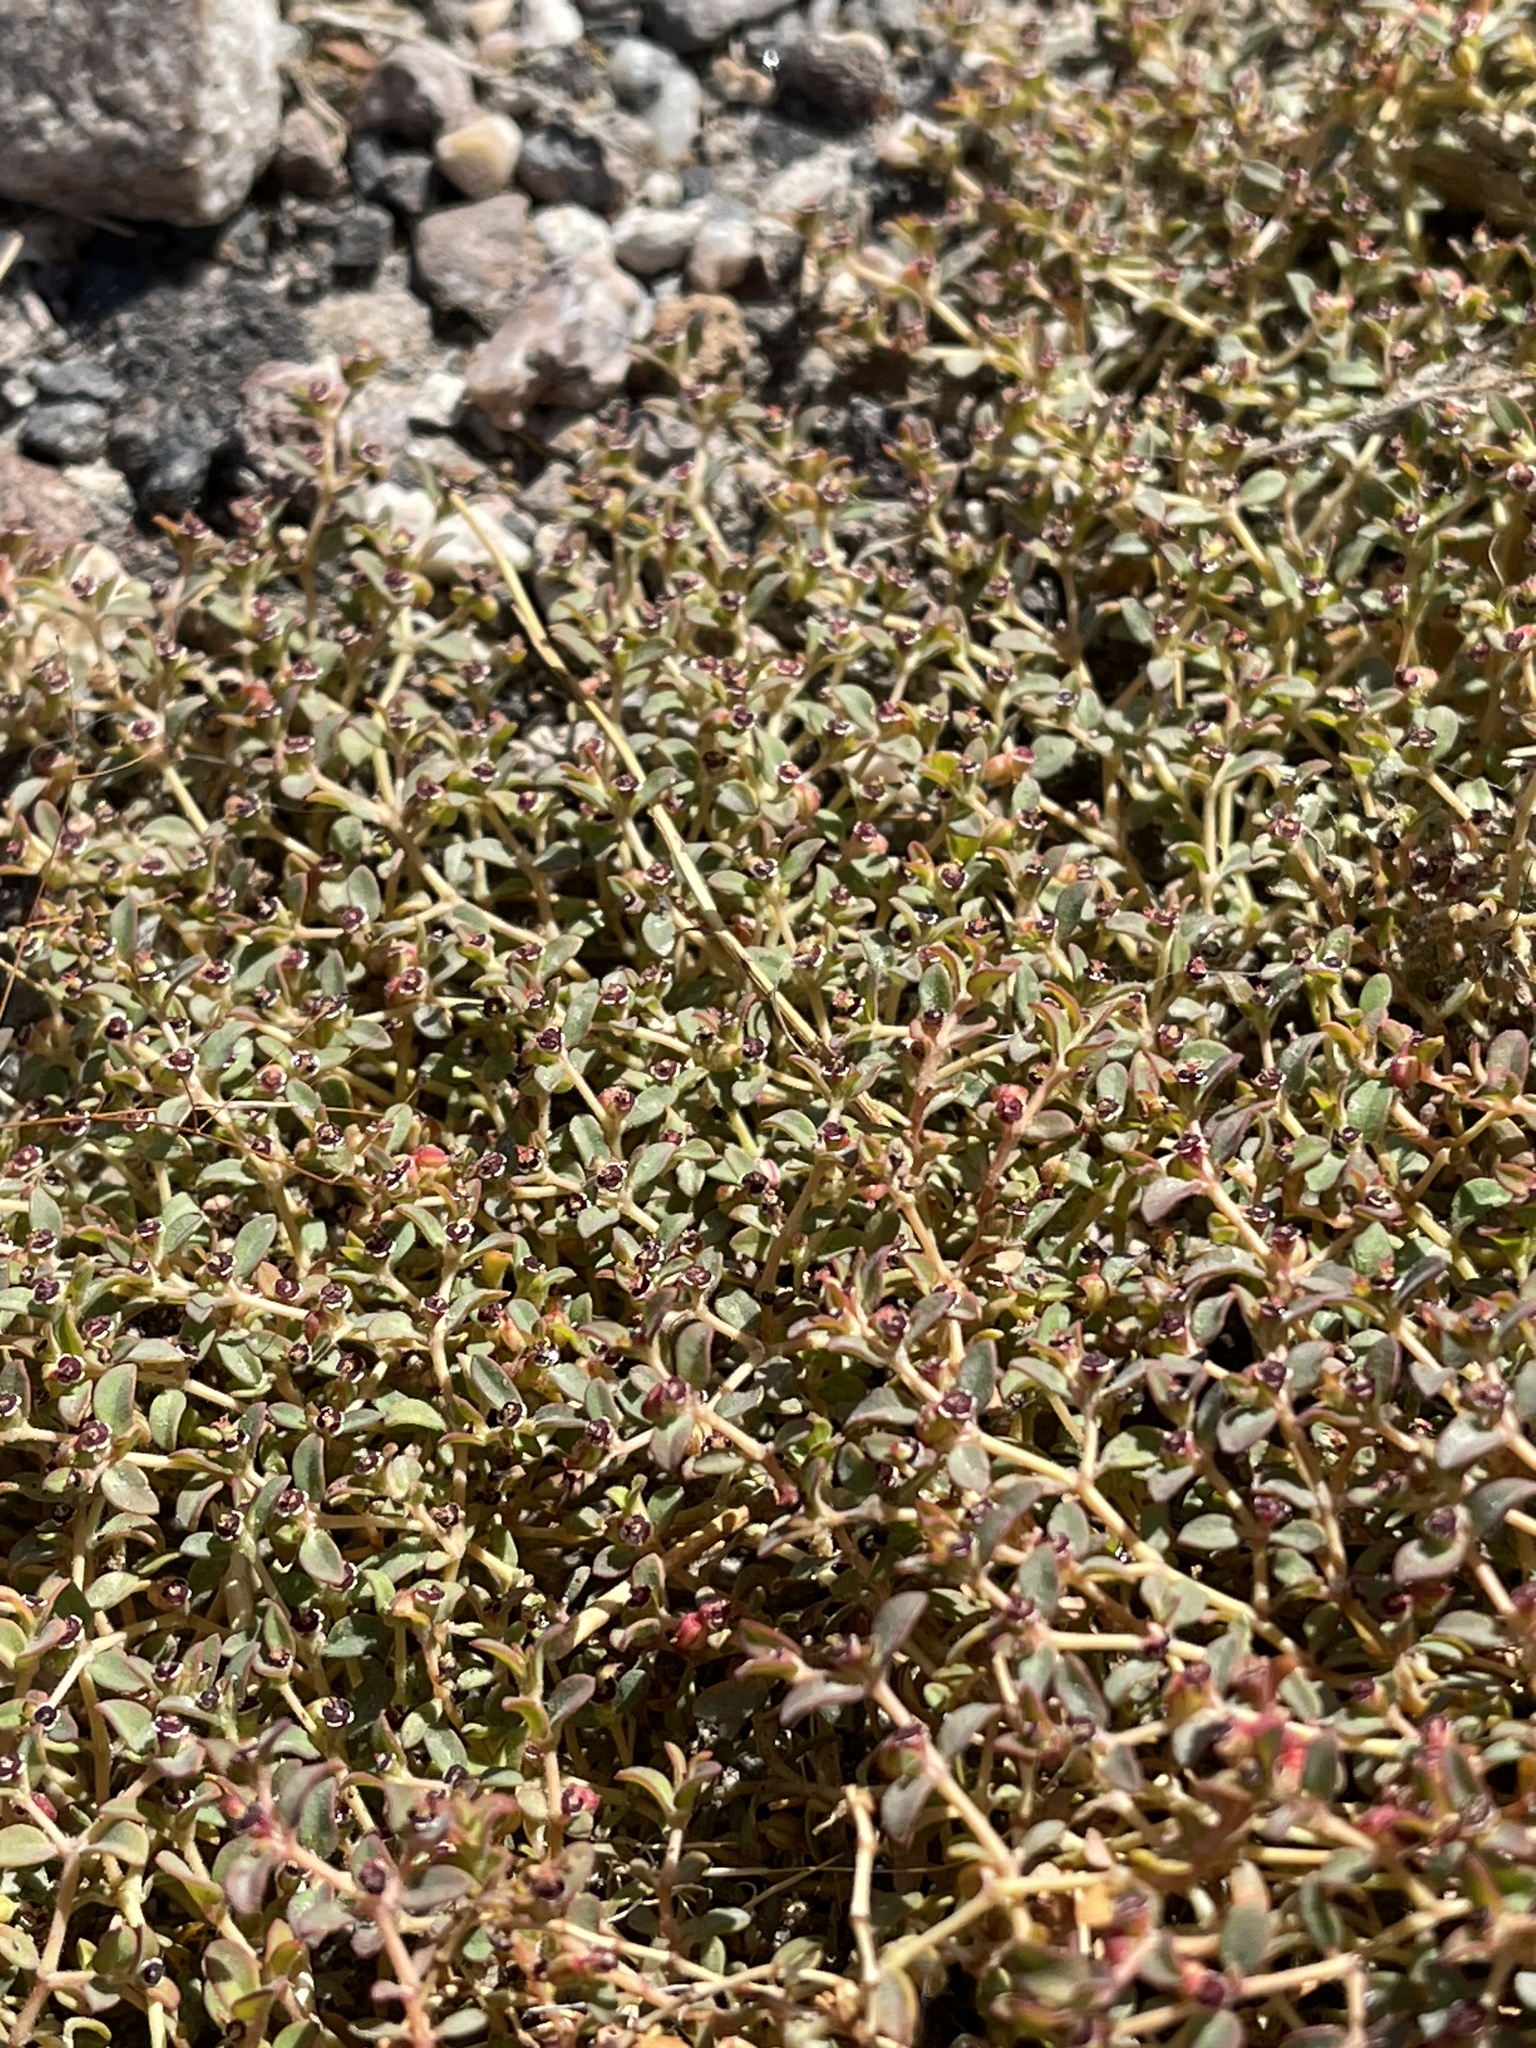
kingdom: Plantae
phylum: Tracheophyta
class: Magnoliopsida
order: Malpighiales
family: Euphorbiaceae
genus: Euphorbia
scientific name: Euphorbia polycarpa
